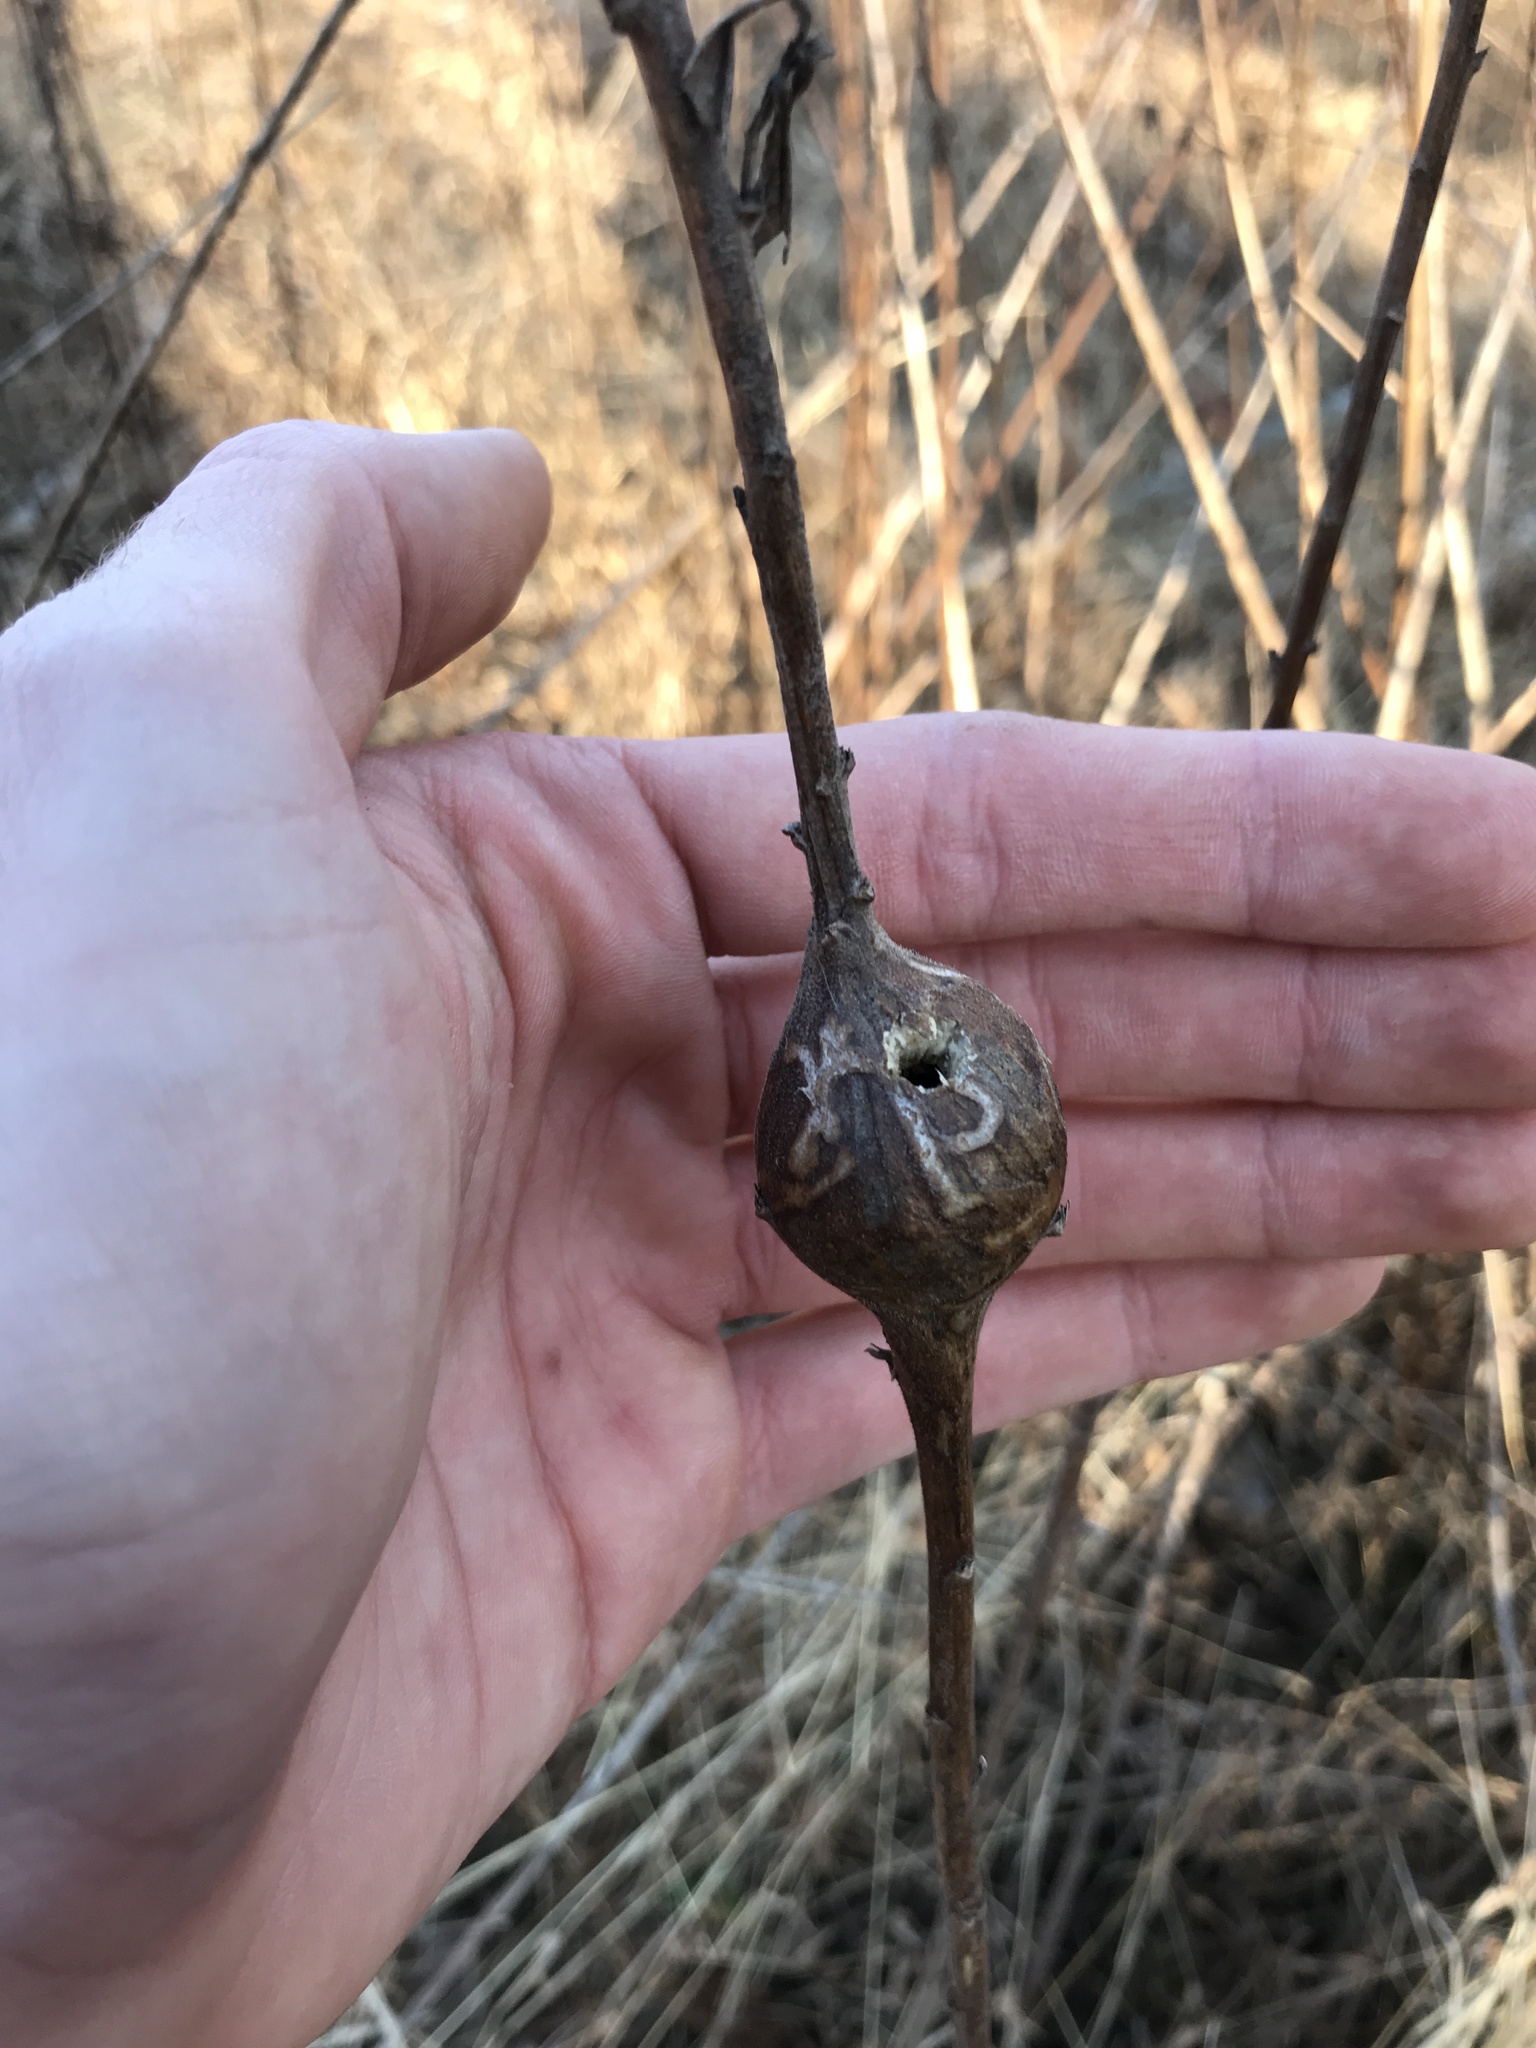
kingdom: Animalia
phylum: Arthropoda
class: Insecta
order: Diptera
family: Tephritidae
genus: Eurosta
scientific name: Eurosta solidaginis
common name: Goldenrod gall fly
